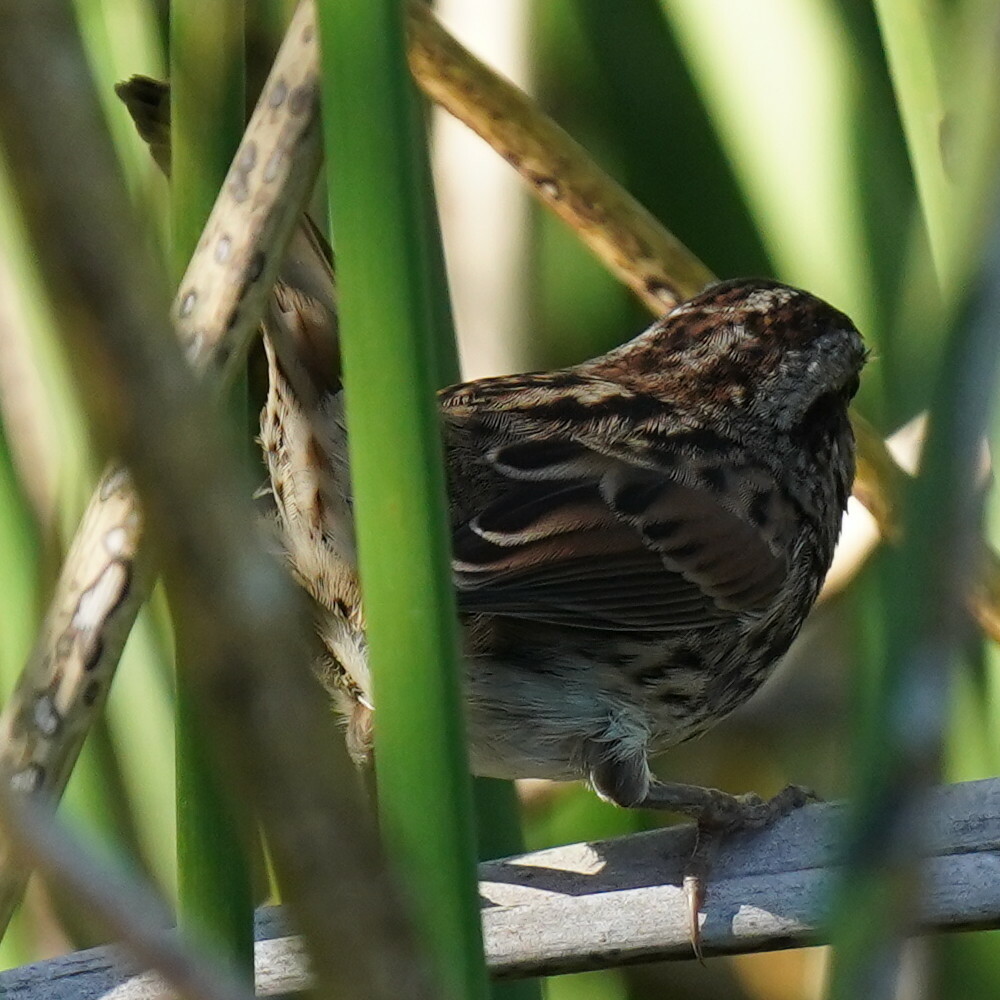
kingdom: Animalia
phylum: Chordata
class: Aves
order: Passeriformes
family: Passerellidae
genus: Melospiza
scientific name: Melospiza melodia
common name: Song sparrow
